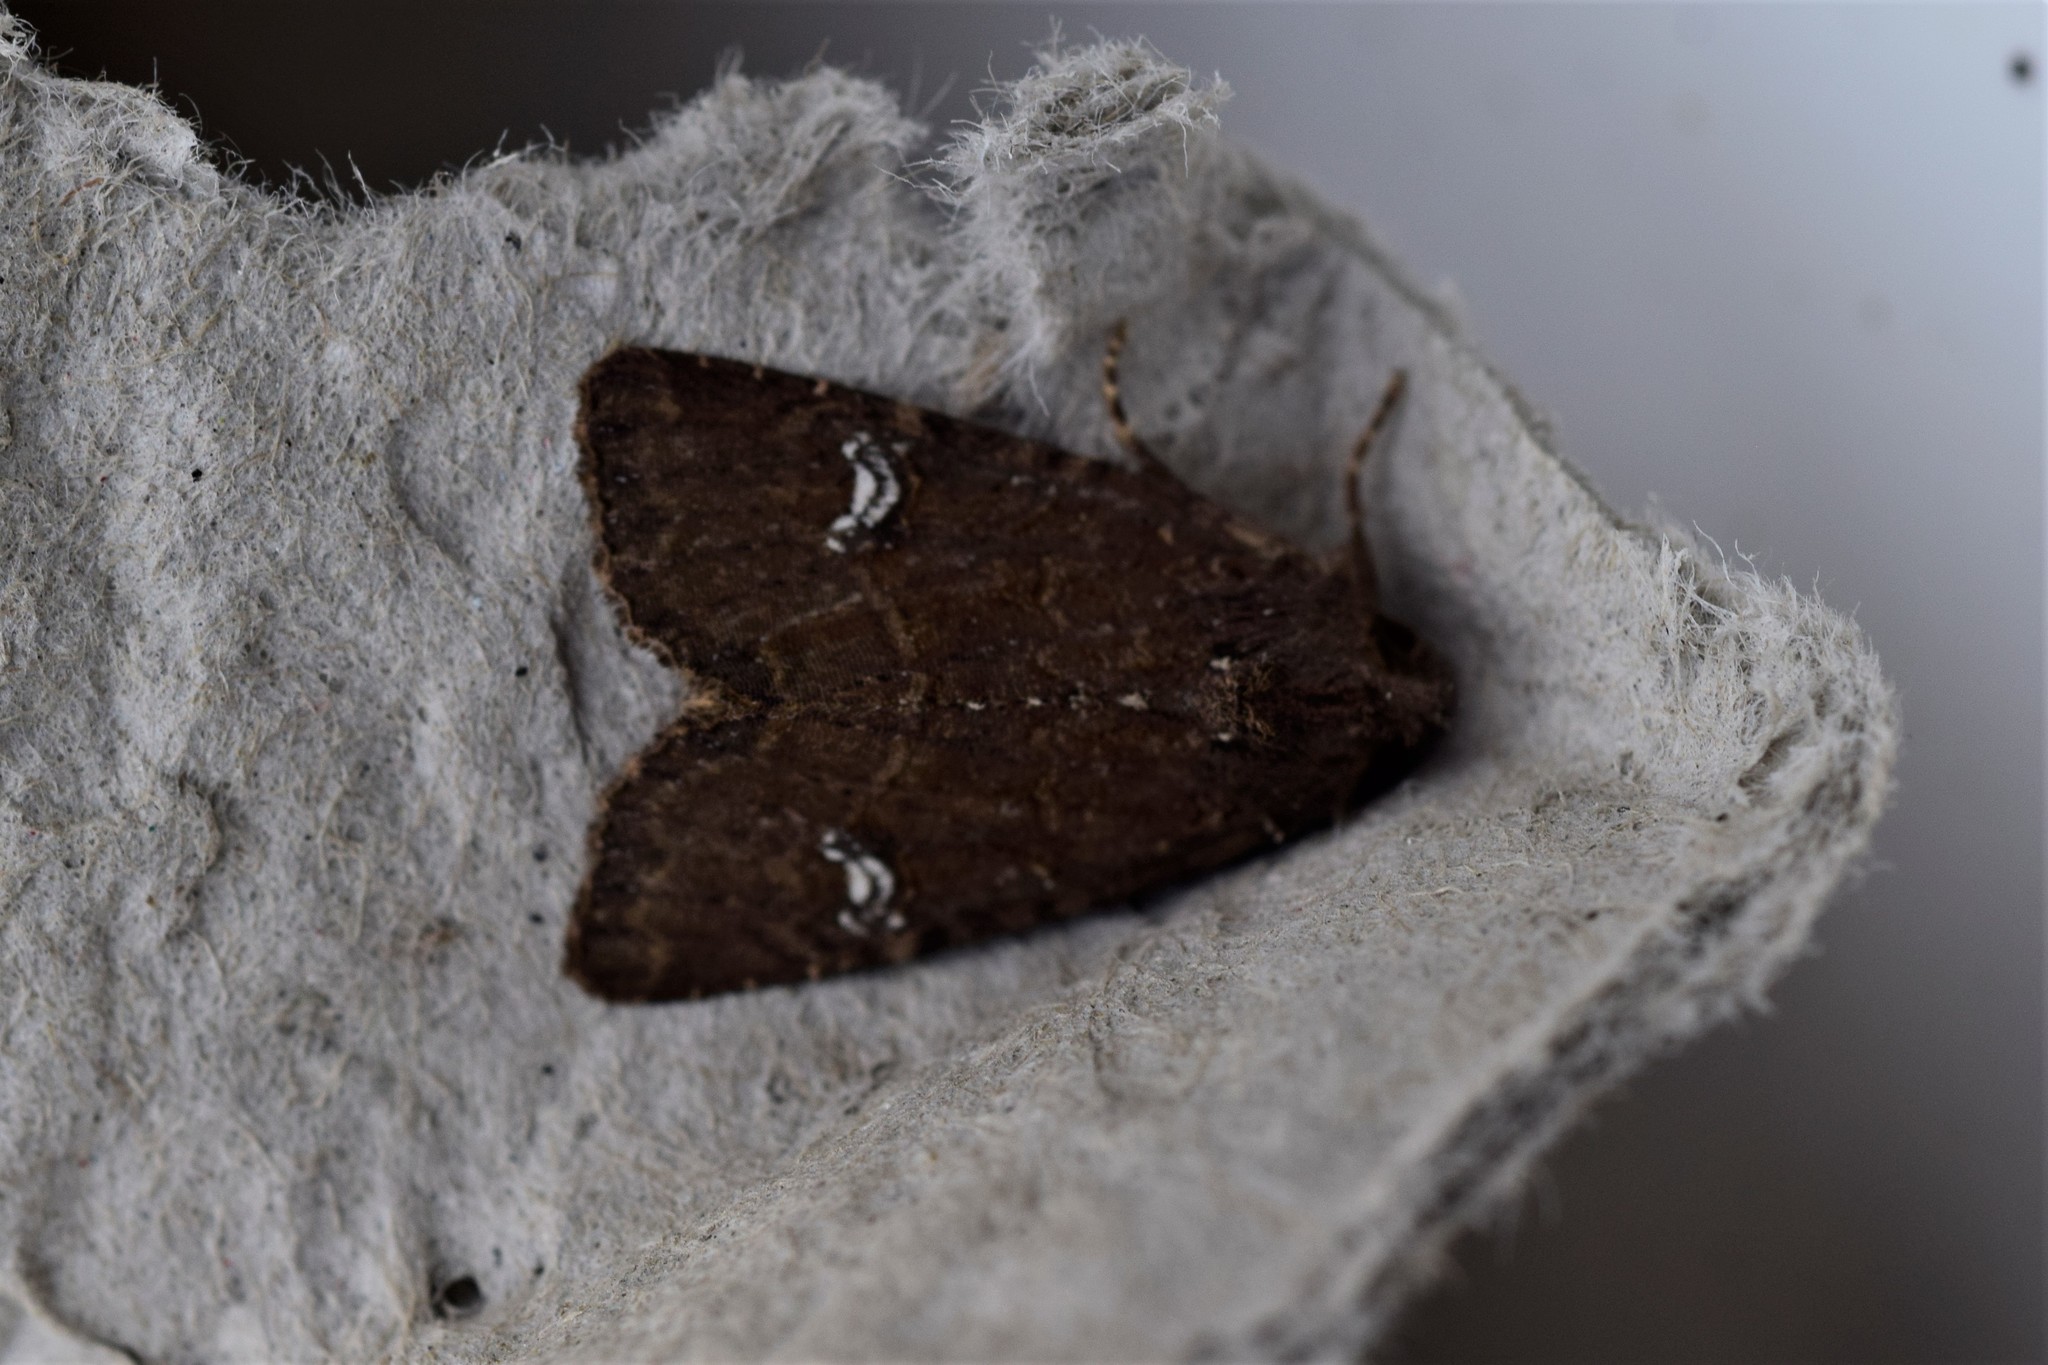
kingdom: Animalia
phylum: Arthropoda
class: Insecta
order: Lepidoptera
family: Noctuidae
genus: Mesapamea
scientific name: Mesapamea
